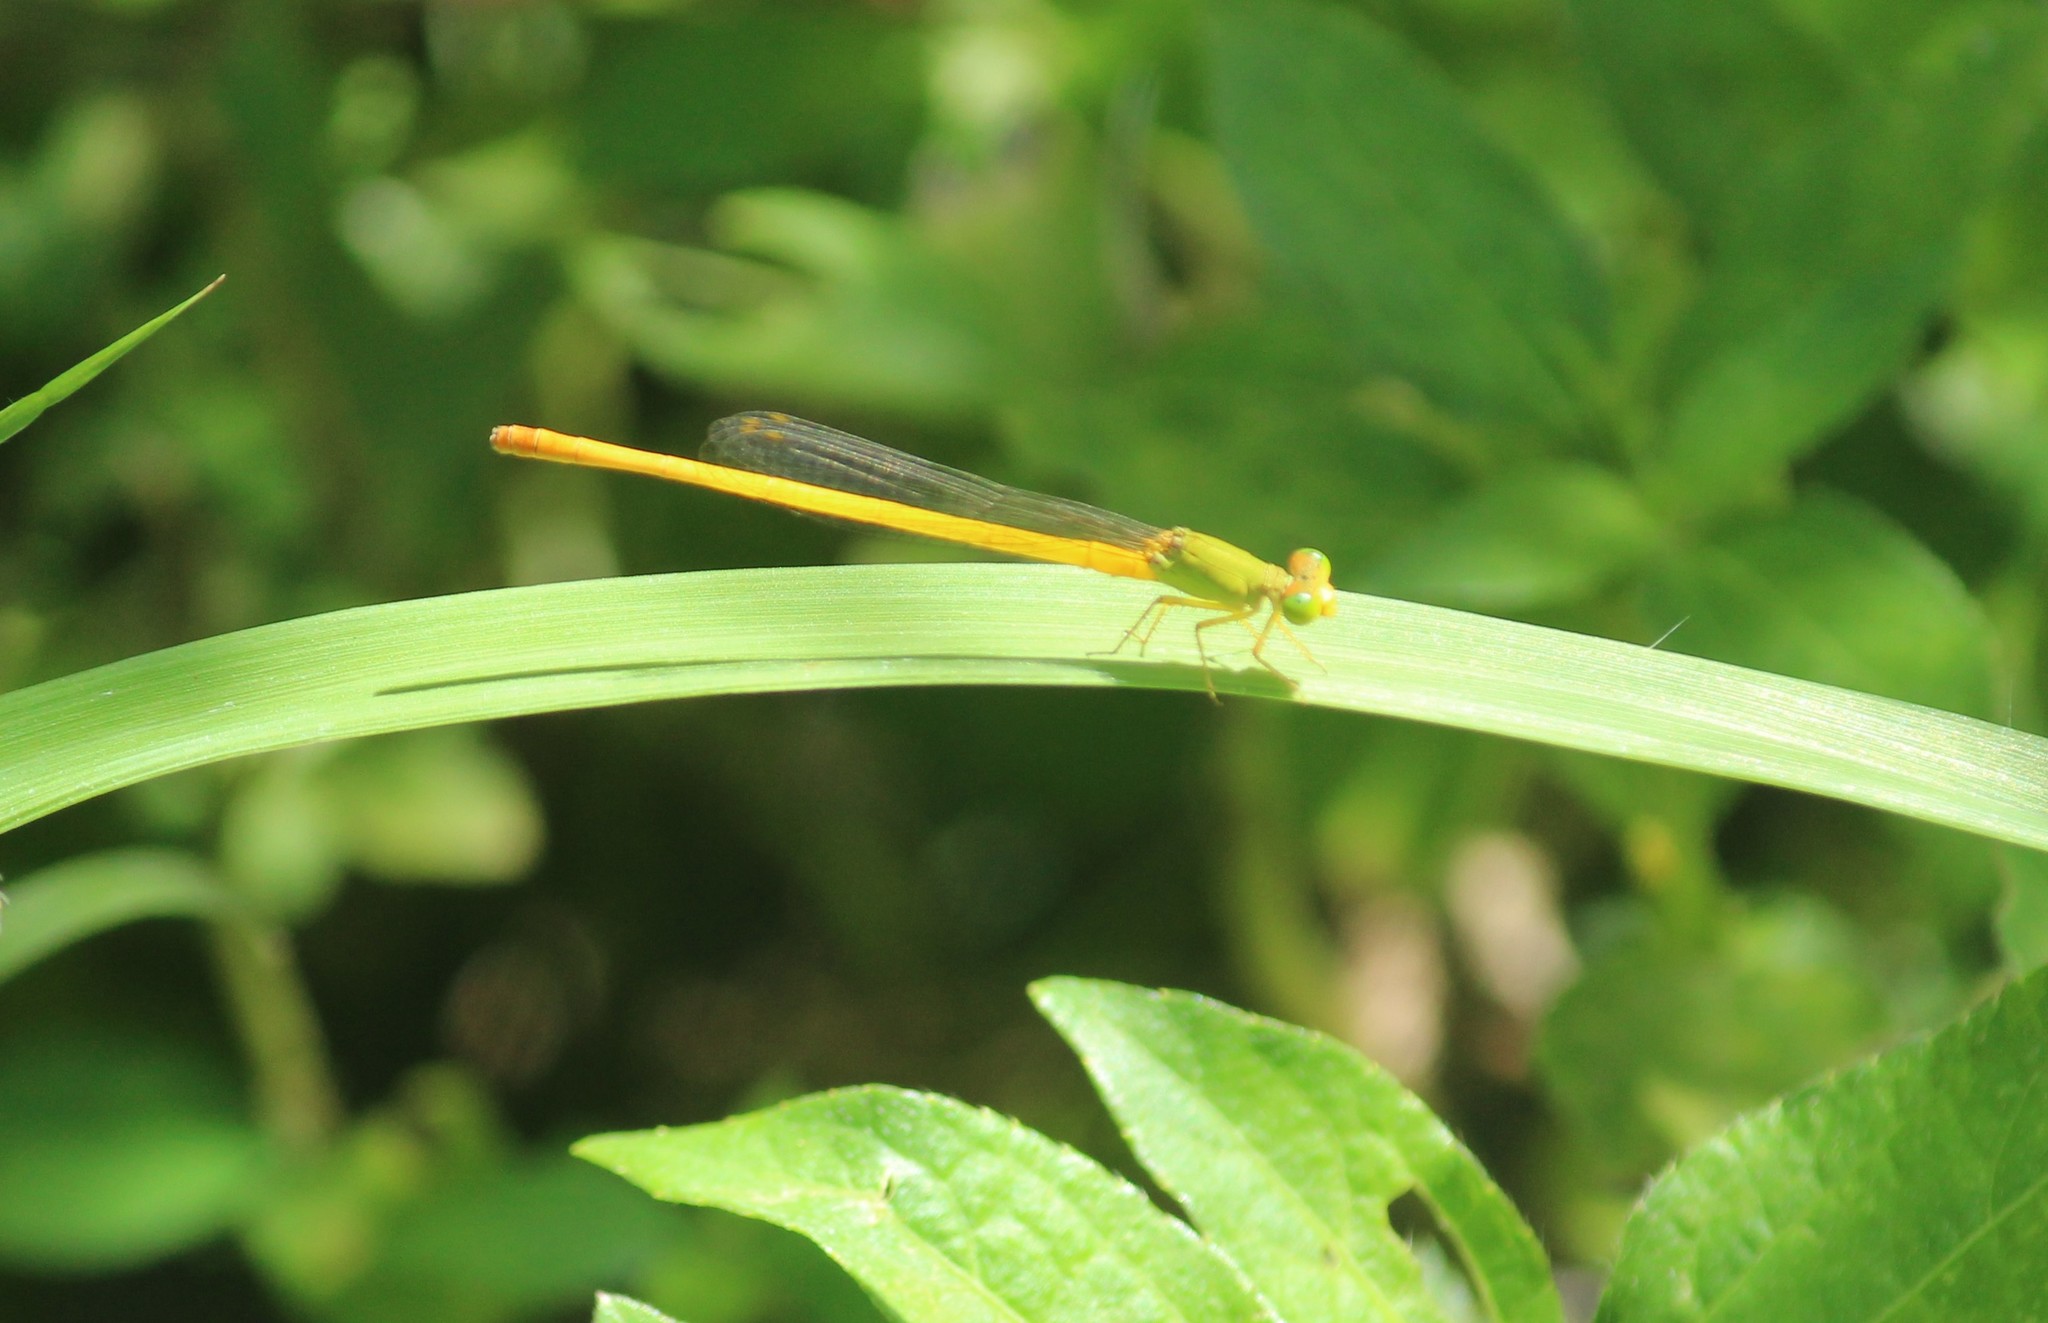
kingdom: Animalia
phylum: Arthropoda
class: Insecta
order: Odonata
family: Coenagrionidae
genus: Ceriagrion
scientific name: Ceriagrion coromandelianum
